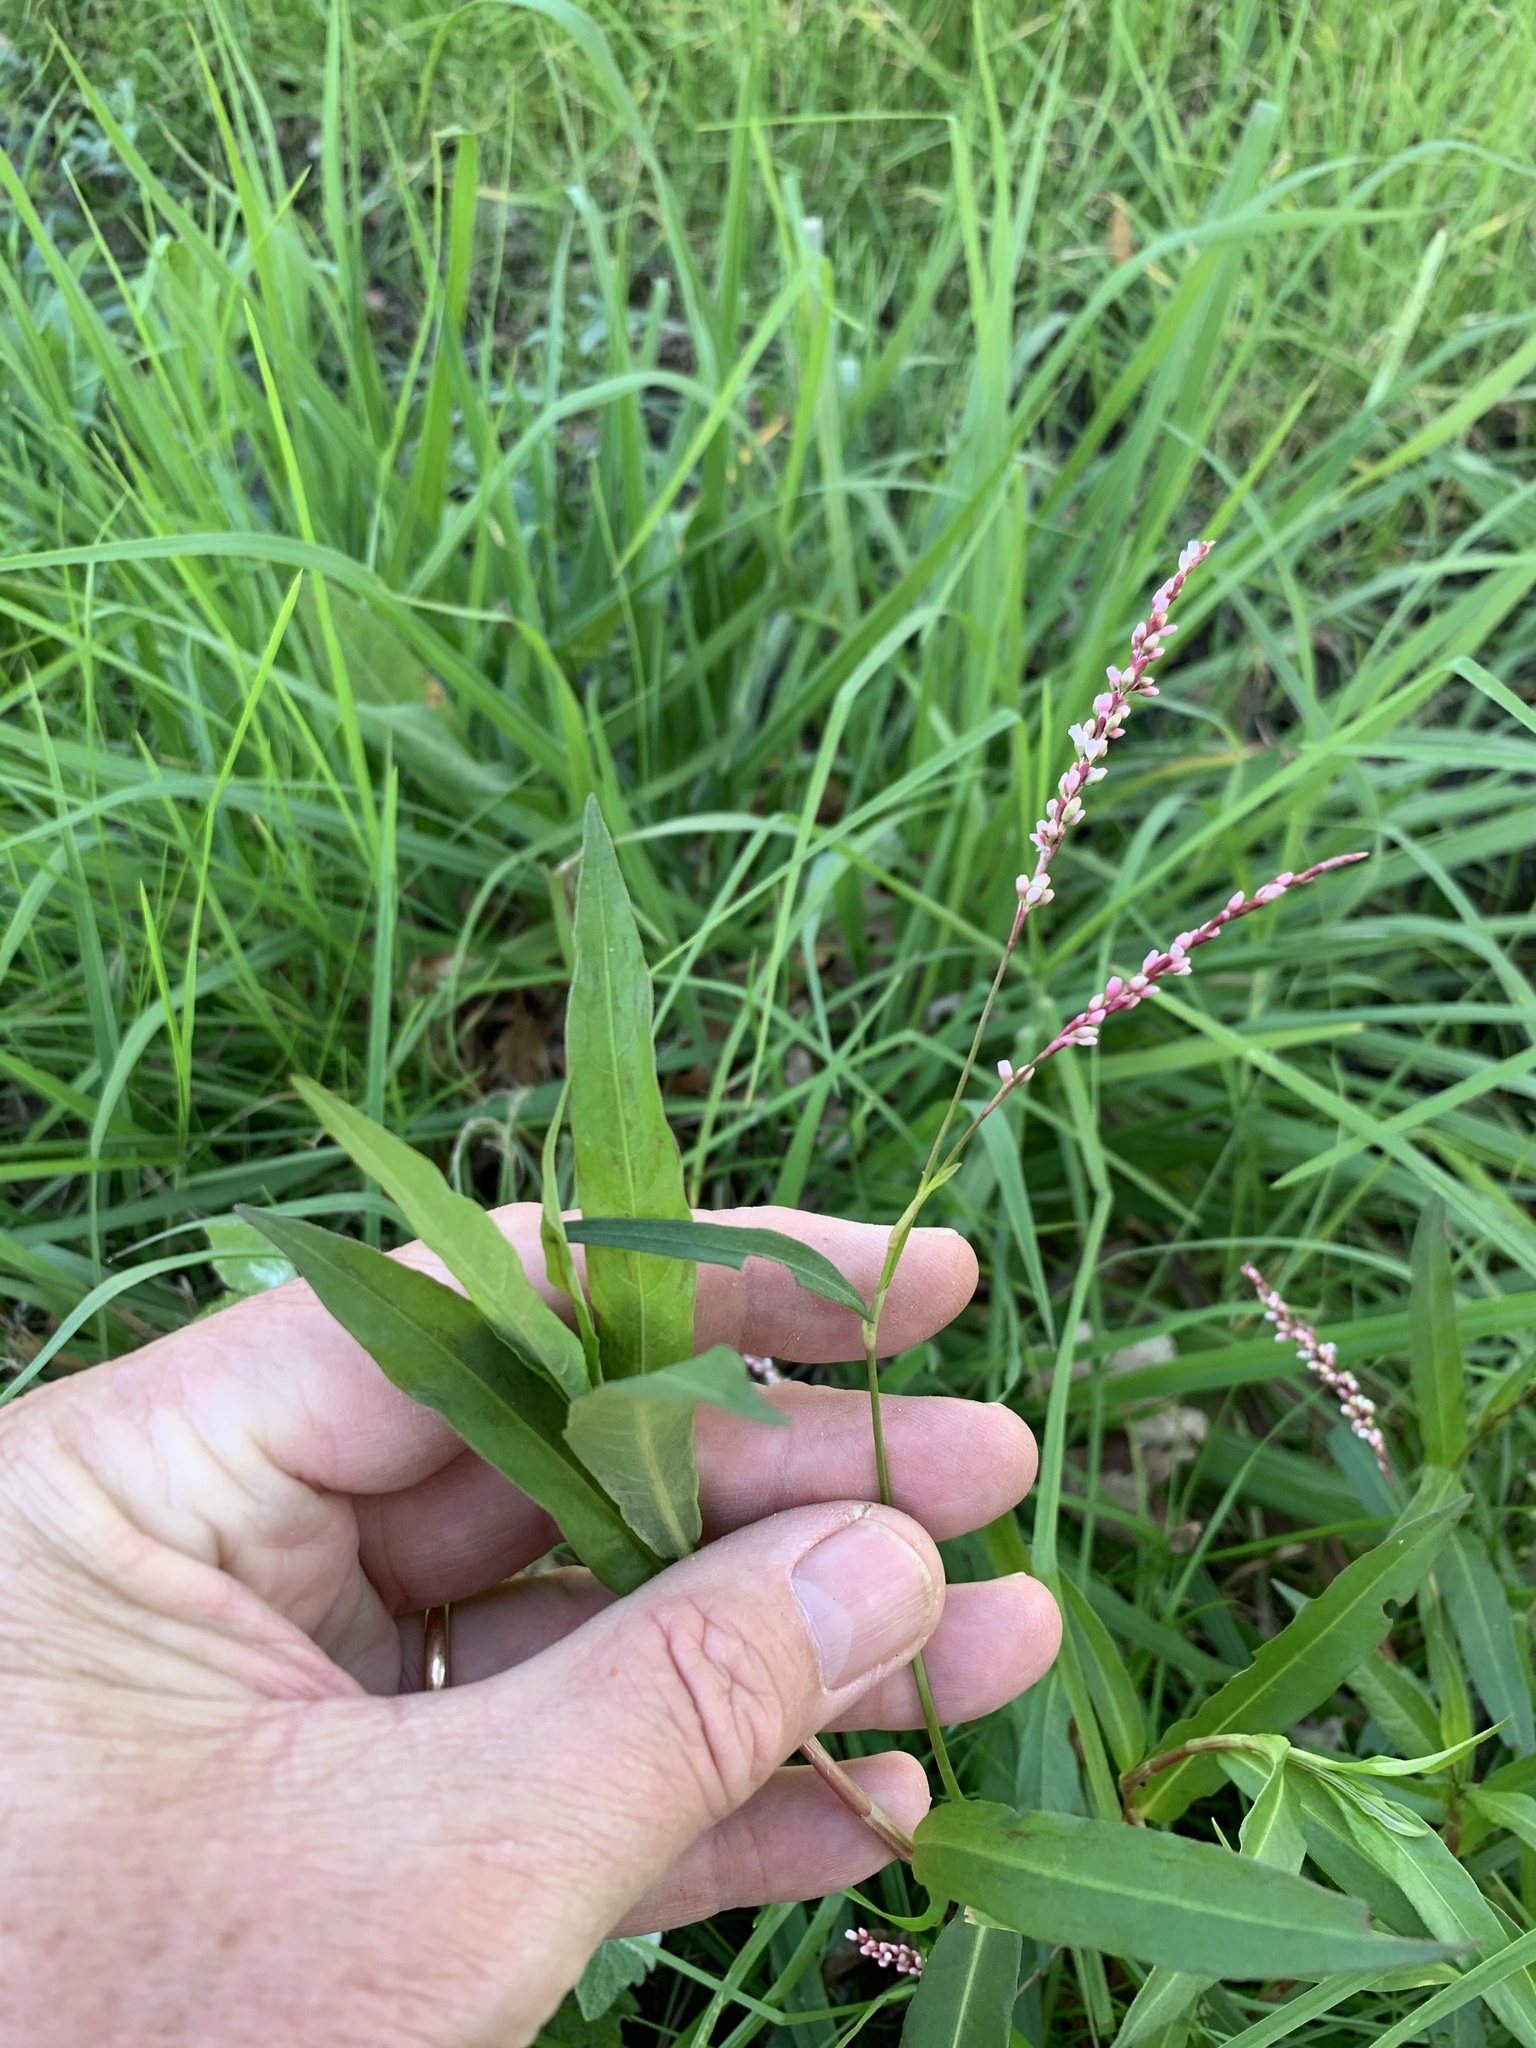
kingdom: Plantae
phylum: Tracheophyta
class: Magnoliopsida
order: Caryophyllales
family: Polygonaceae
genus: Persicaria
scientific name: Persicaria decipiens
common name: Willow-weed
